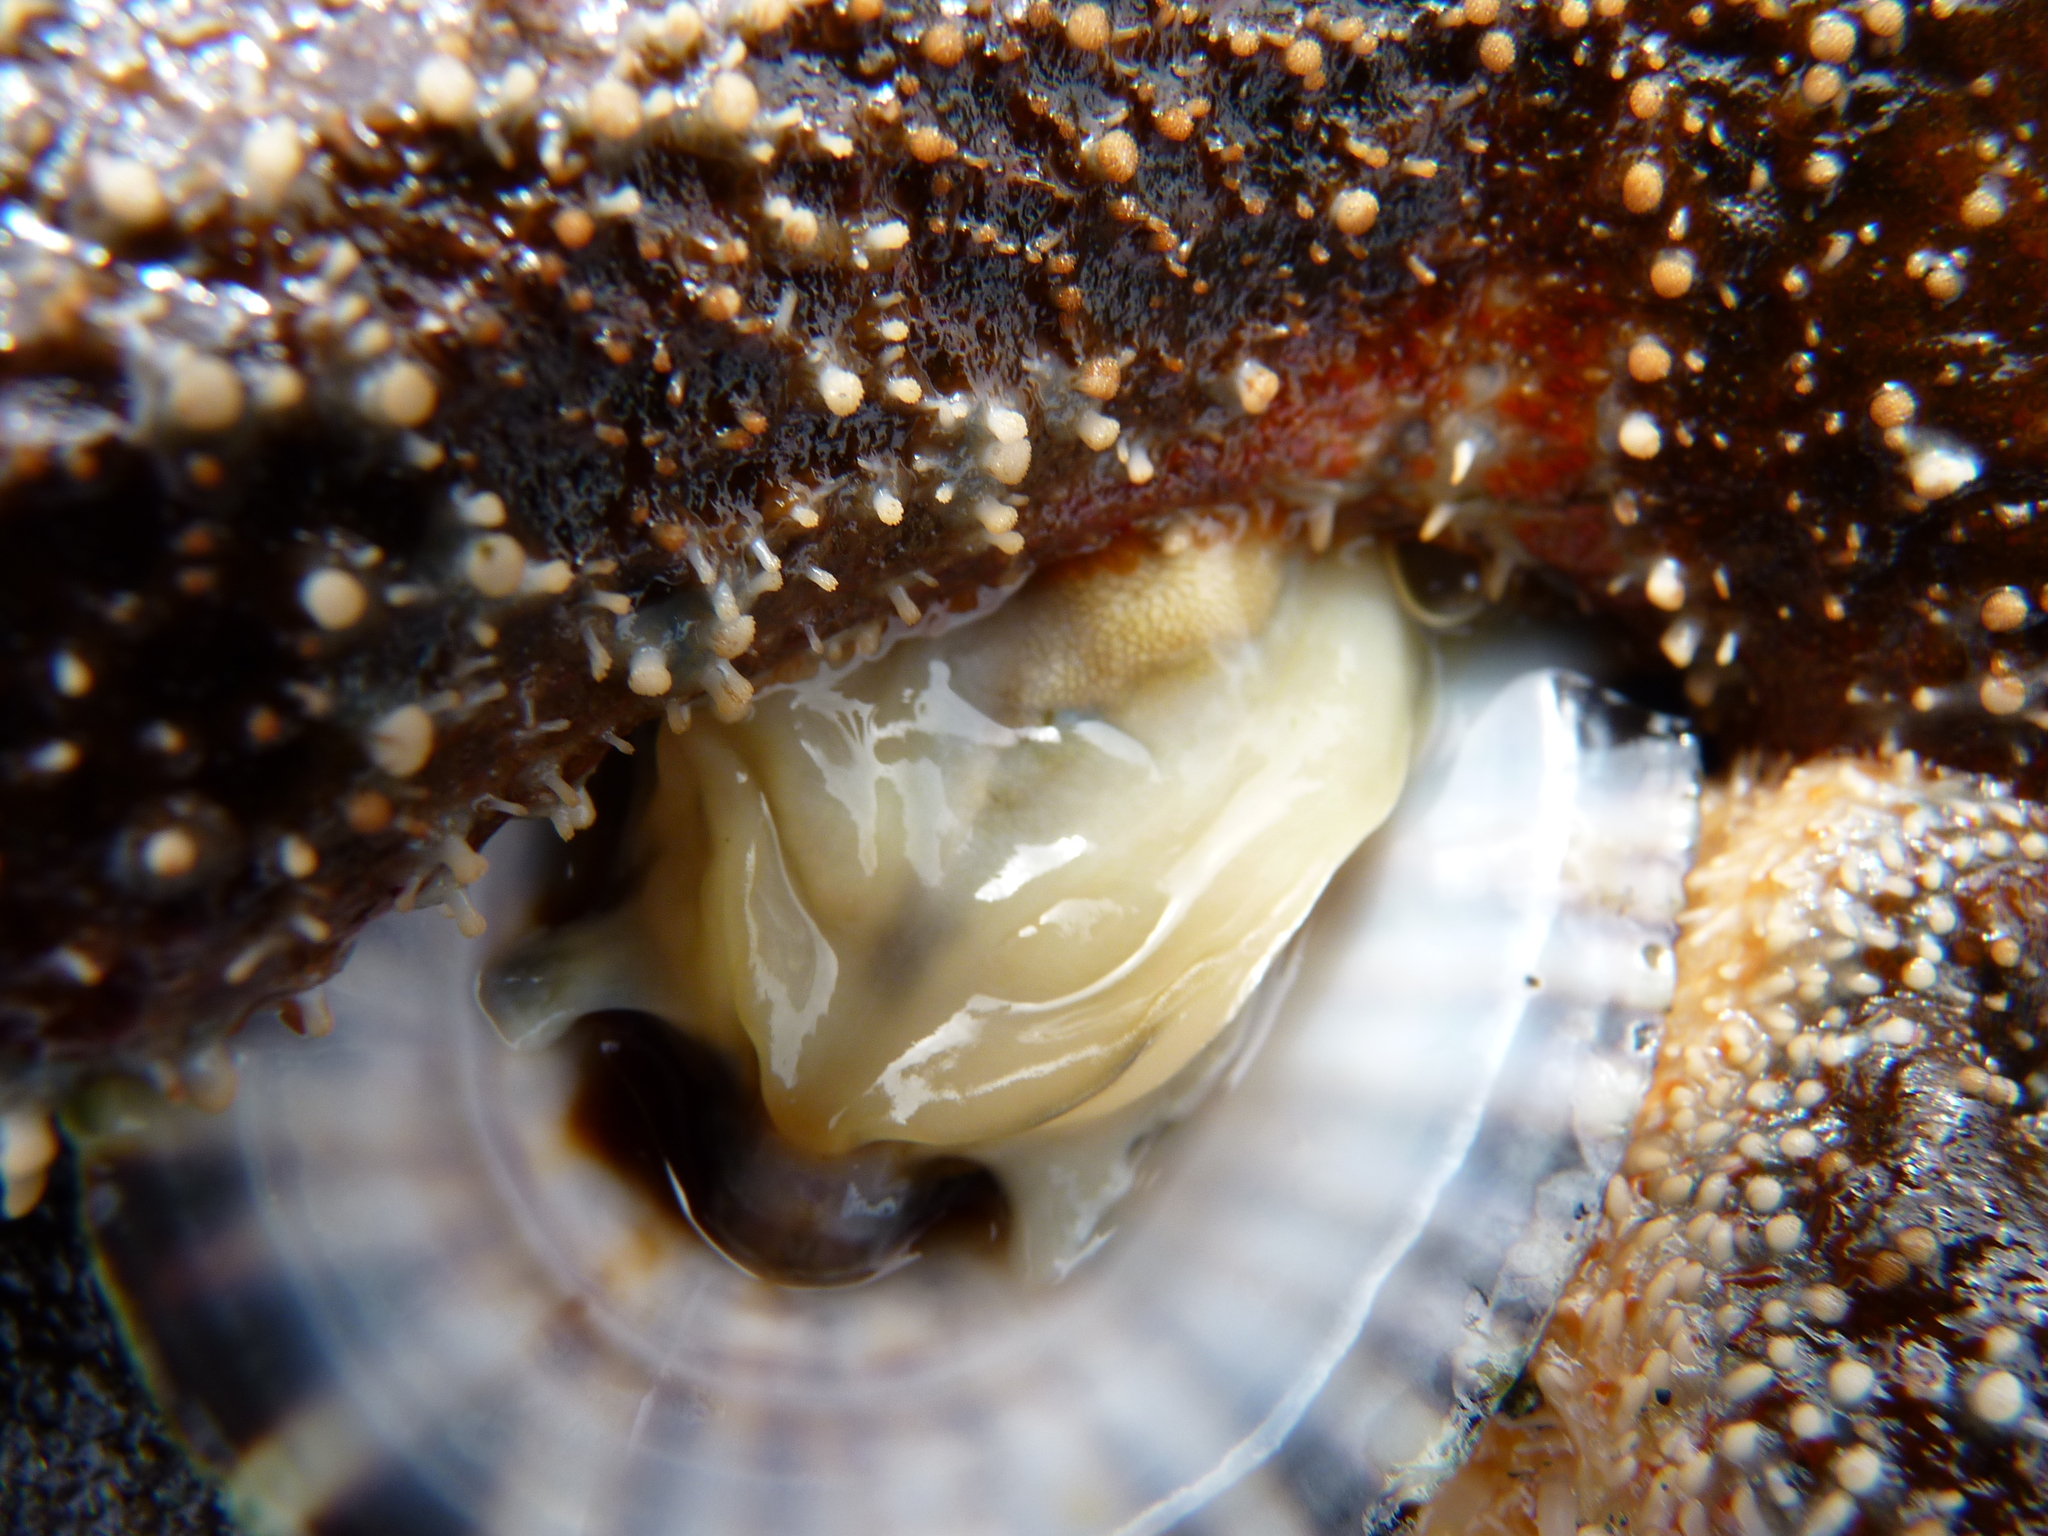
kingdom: Animalia
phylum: Echinodermata
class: Asteroidea
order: Forcipulatida
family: Asteriidae
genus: Evasterias
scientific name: Evasterias troschelii
